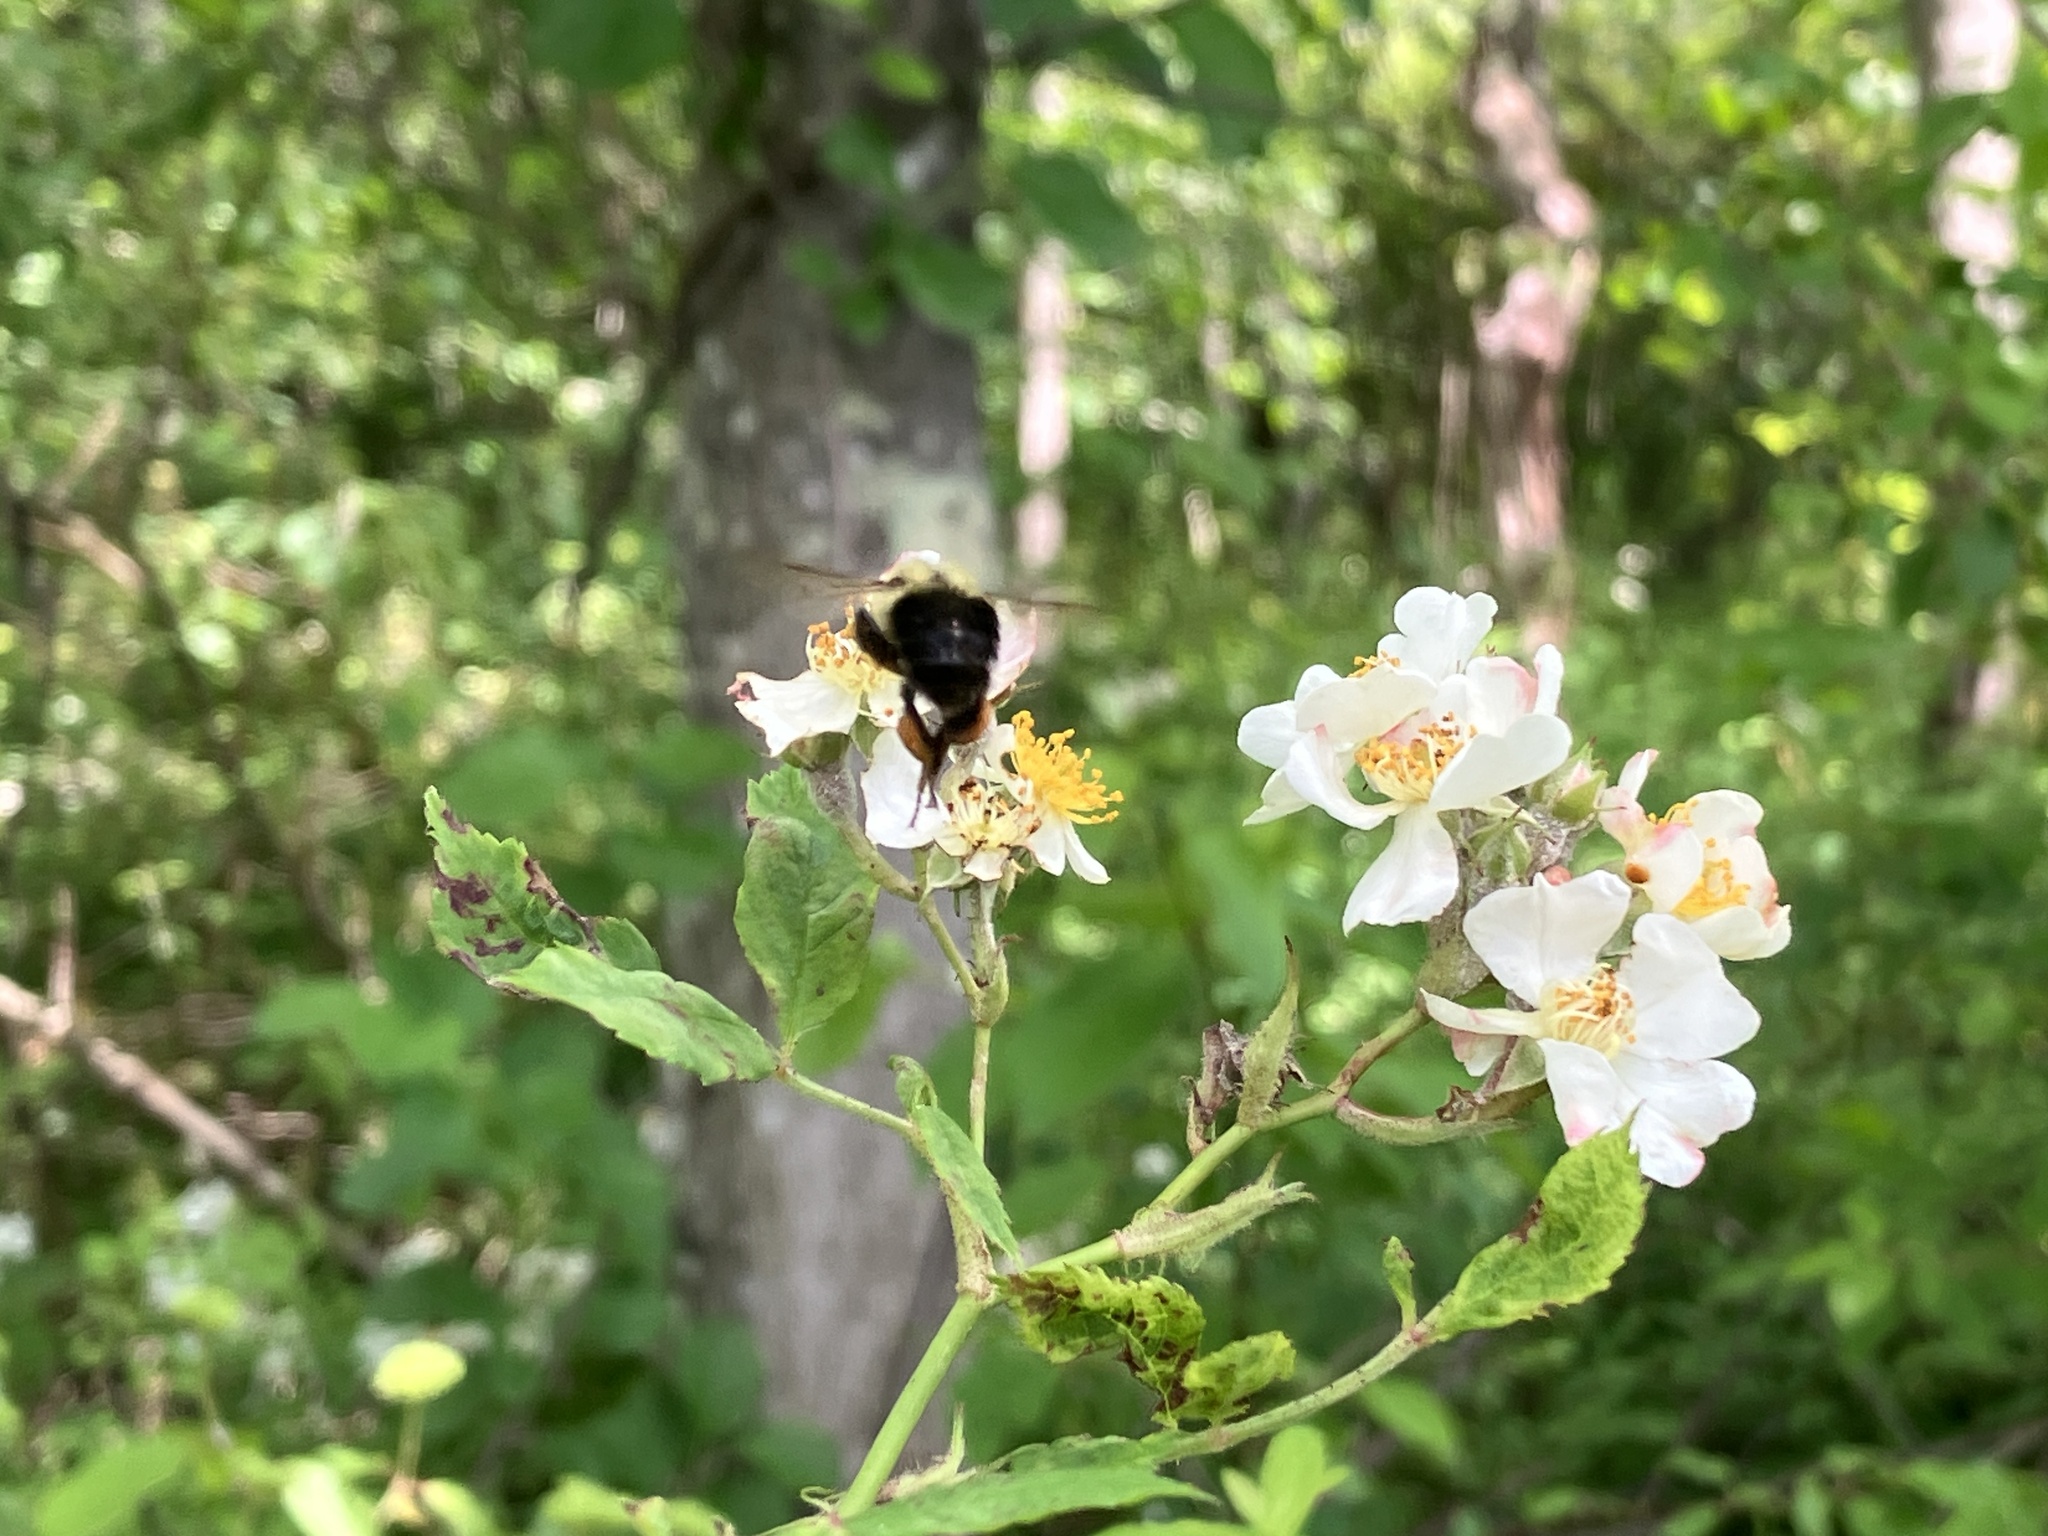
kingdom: Animalia
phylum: Arthropoda
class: Insecta
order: Hymenoptera
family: Apidae
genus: Bombus
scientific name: Bombus impatiens
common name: Common eastern bumble bee
